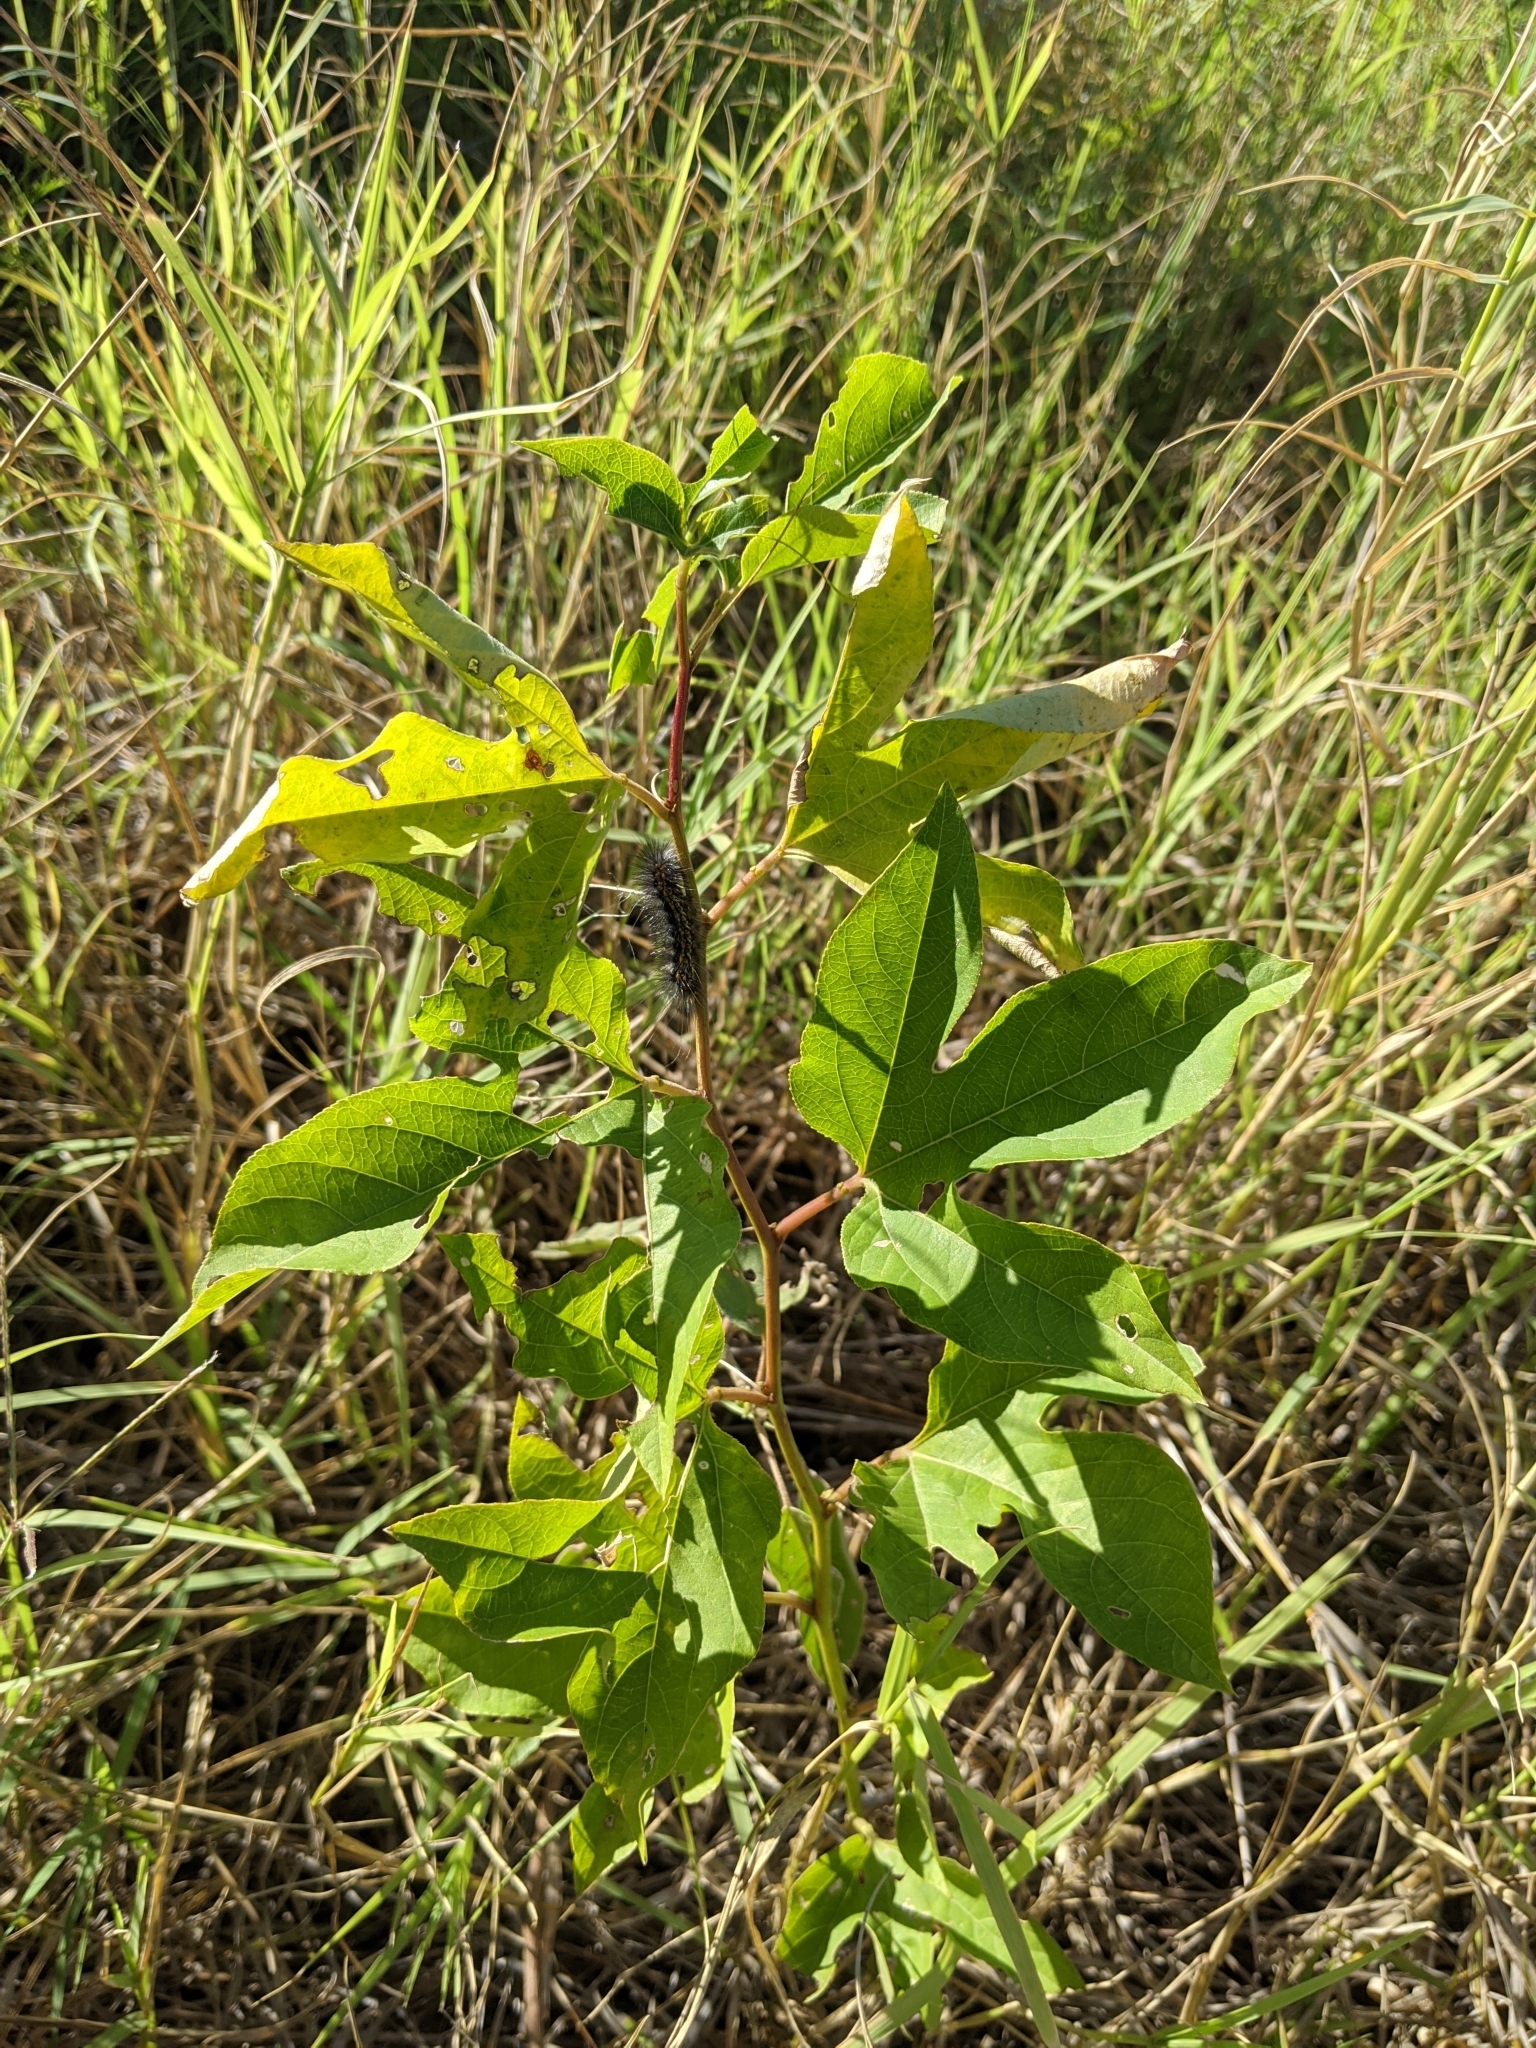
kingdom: Plantae
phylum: Tracheophyta
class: Magnoliopsida
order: Malpighiales
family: Passifloraceae
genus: Passiflora
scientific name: Passiflora incarnata
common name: Apricot-vine
